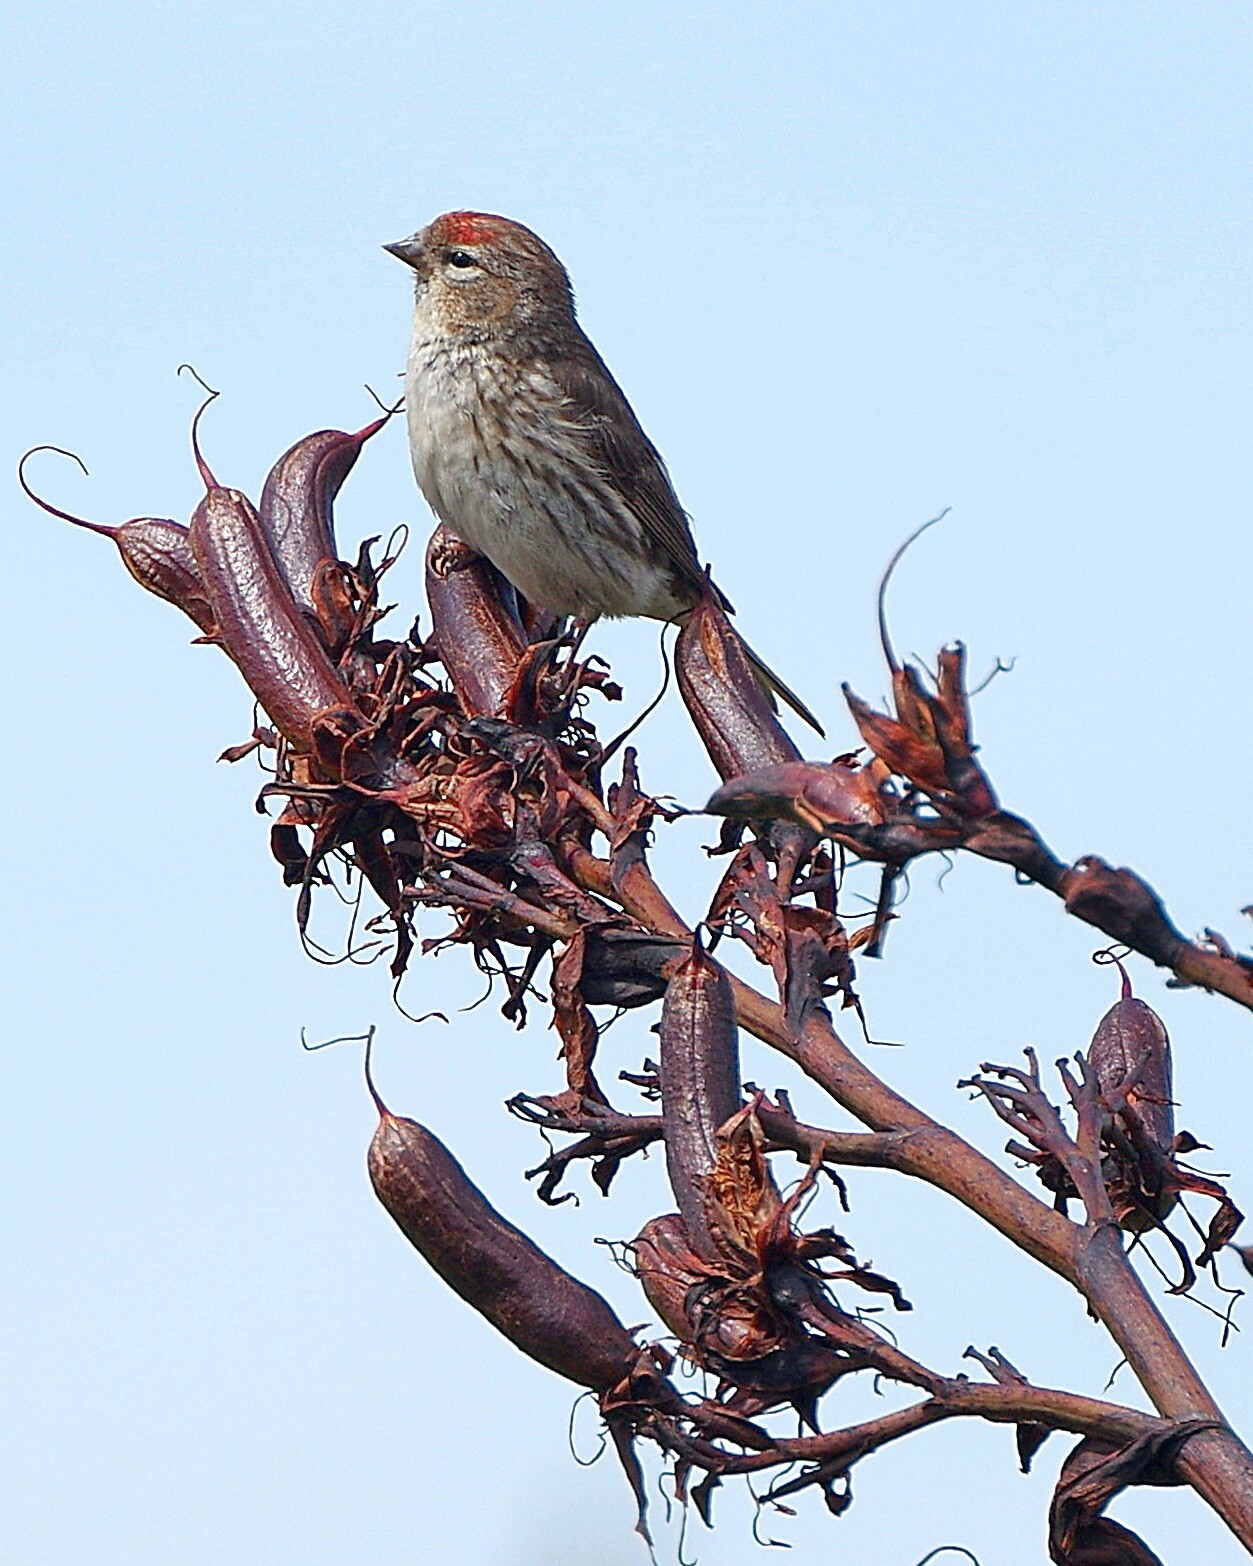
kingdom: Animalia
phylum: Chordata
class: Aves
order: Passeriformes
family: Fringillidae
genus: Acanthis
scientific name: Acanthis flammea
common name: Common redpoll
